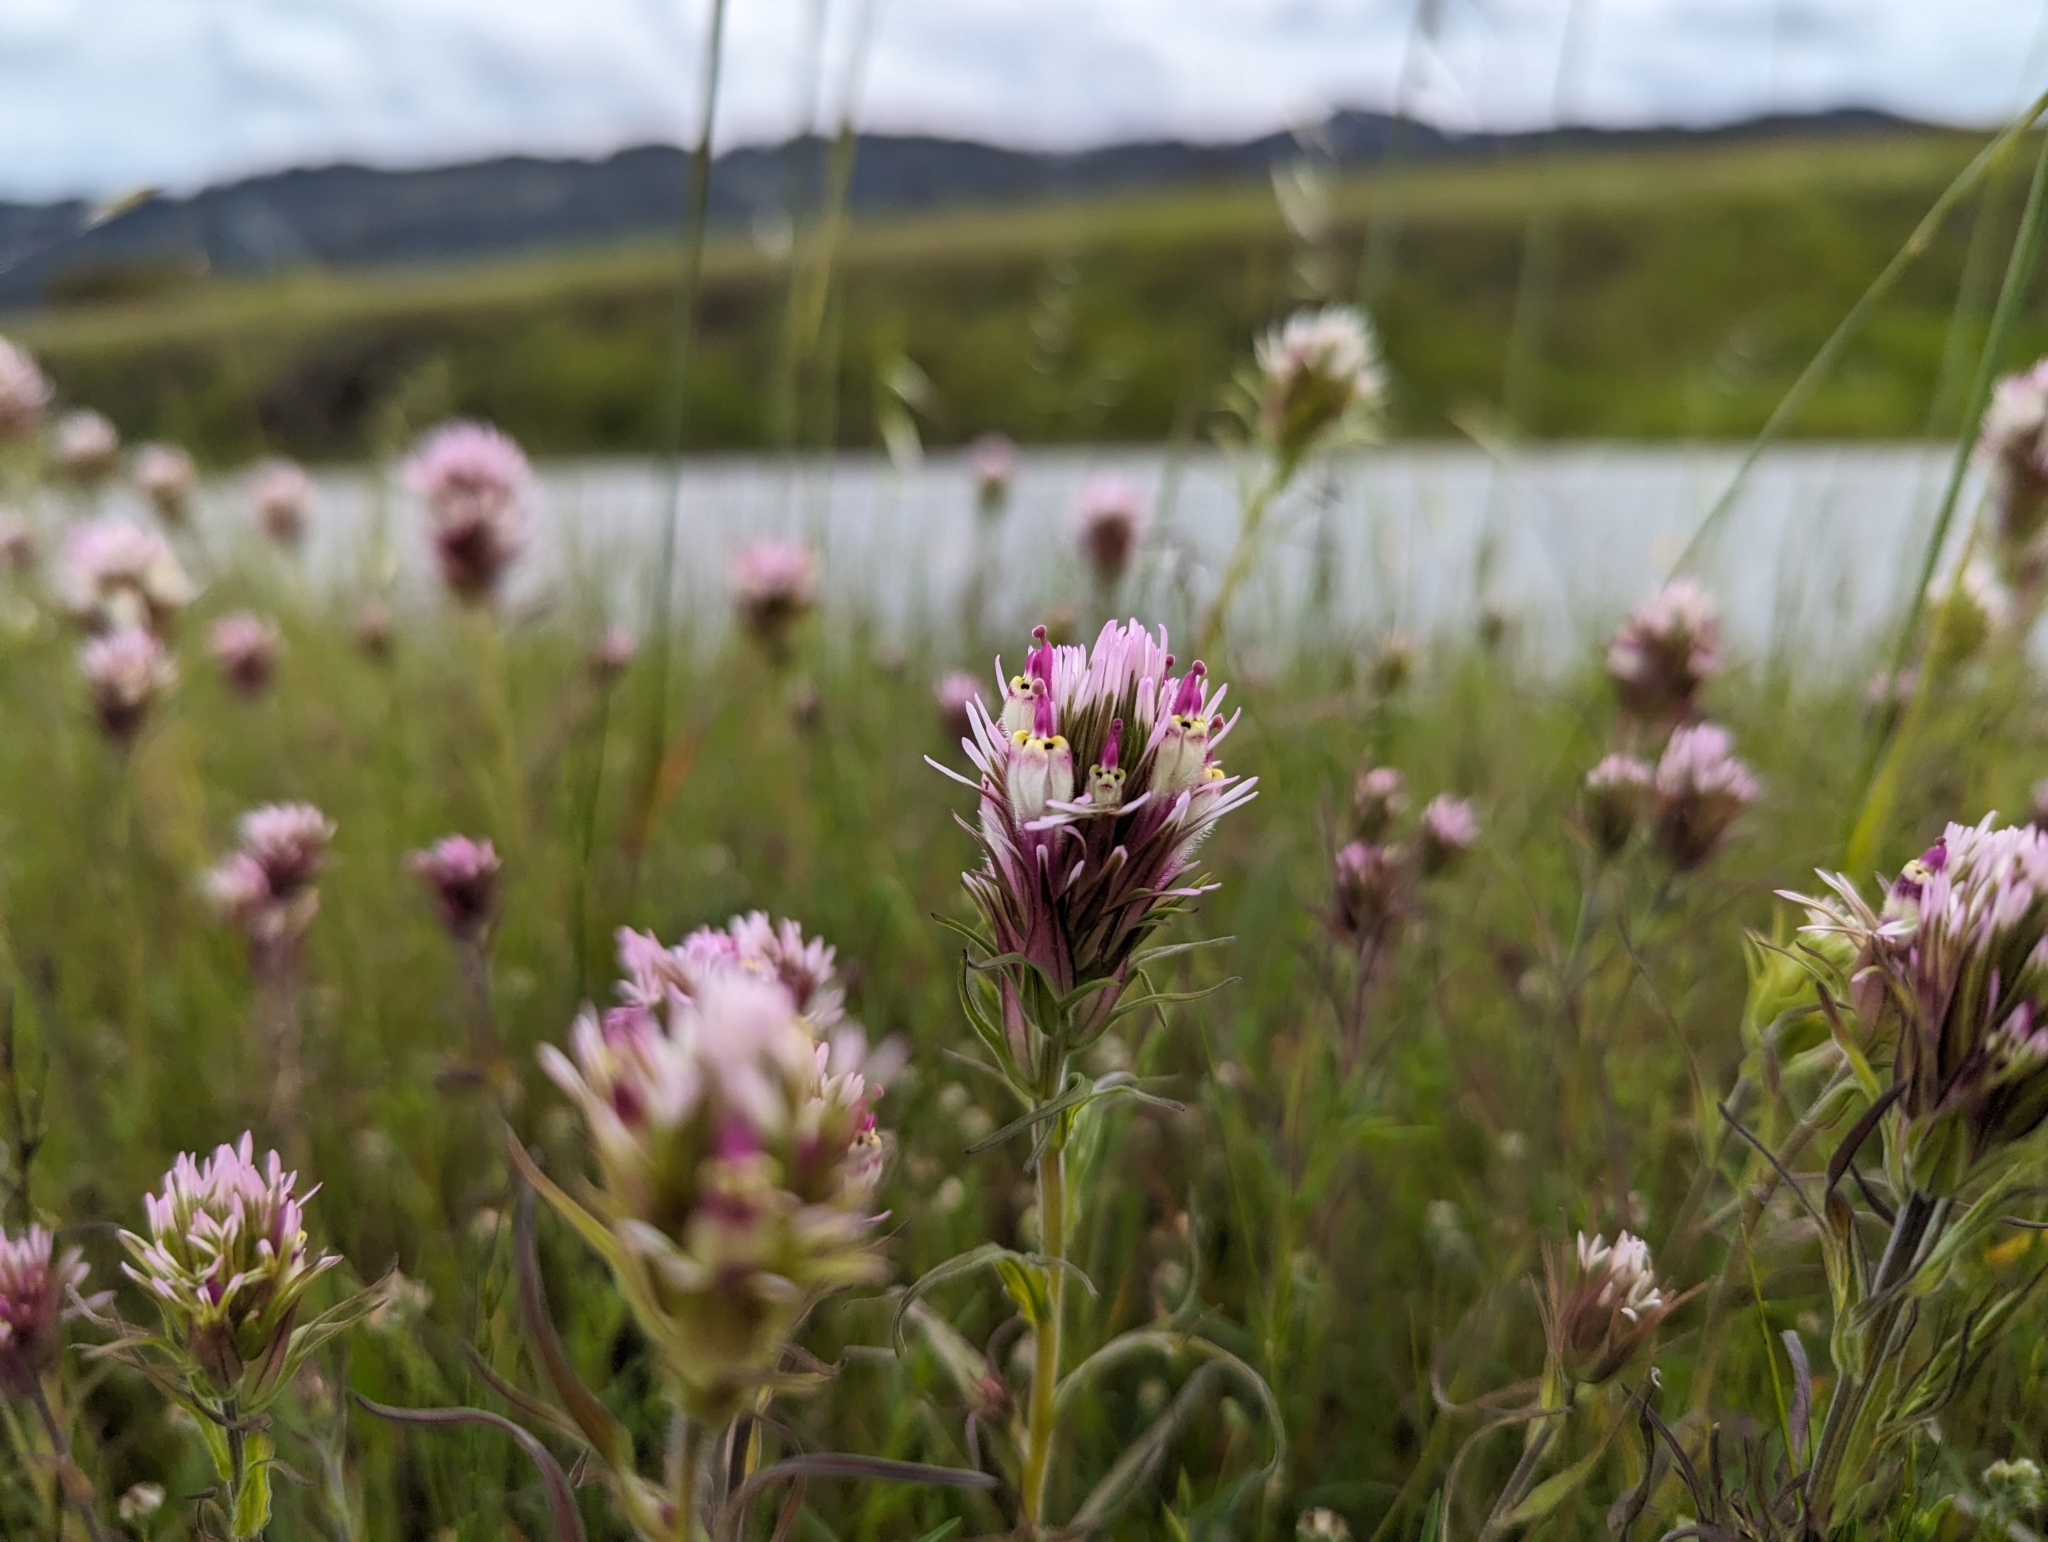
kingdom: Plantae
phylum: Tracheophyta
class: Magnoliopsida
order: Lamiales
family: Orobanchaceae
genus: Castilleja
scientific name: Castilleja densiflora
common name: Dense-flower indian paintbrush
